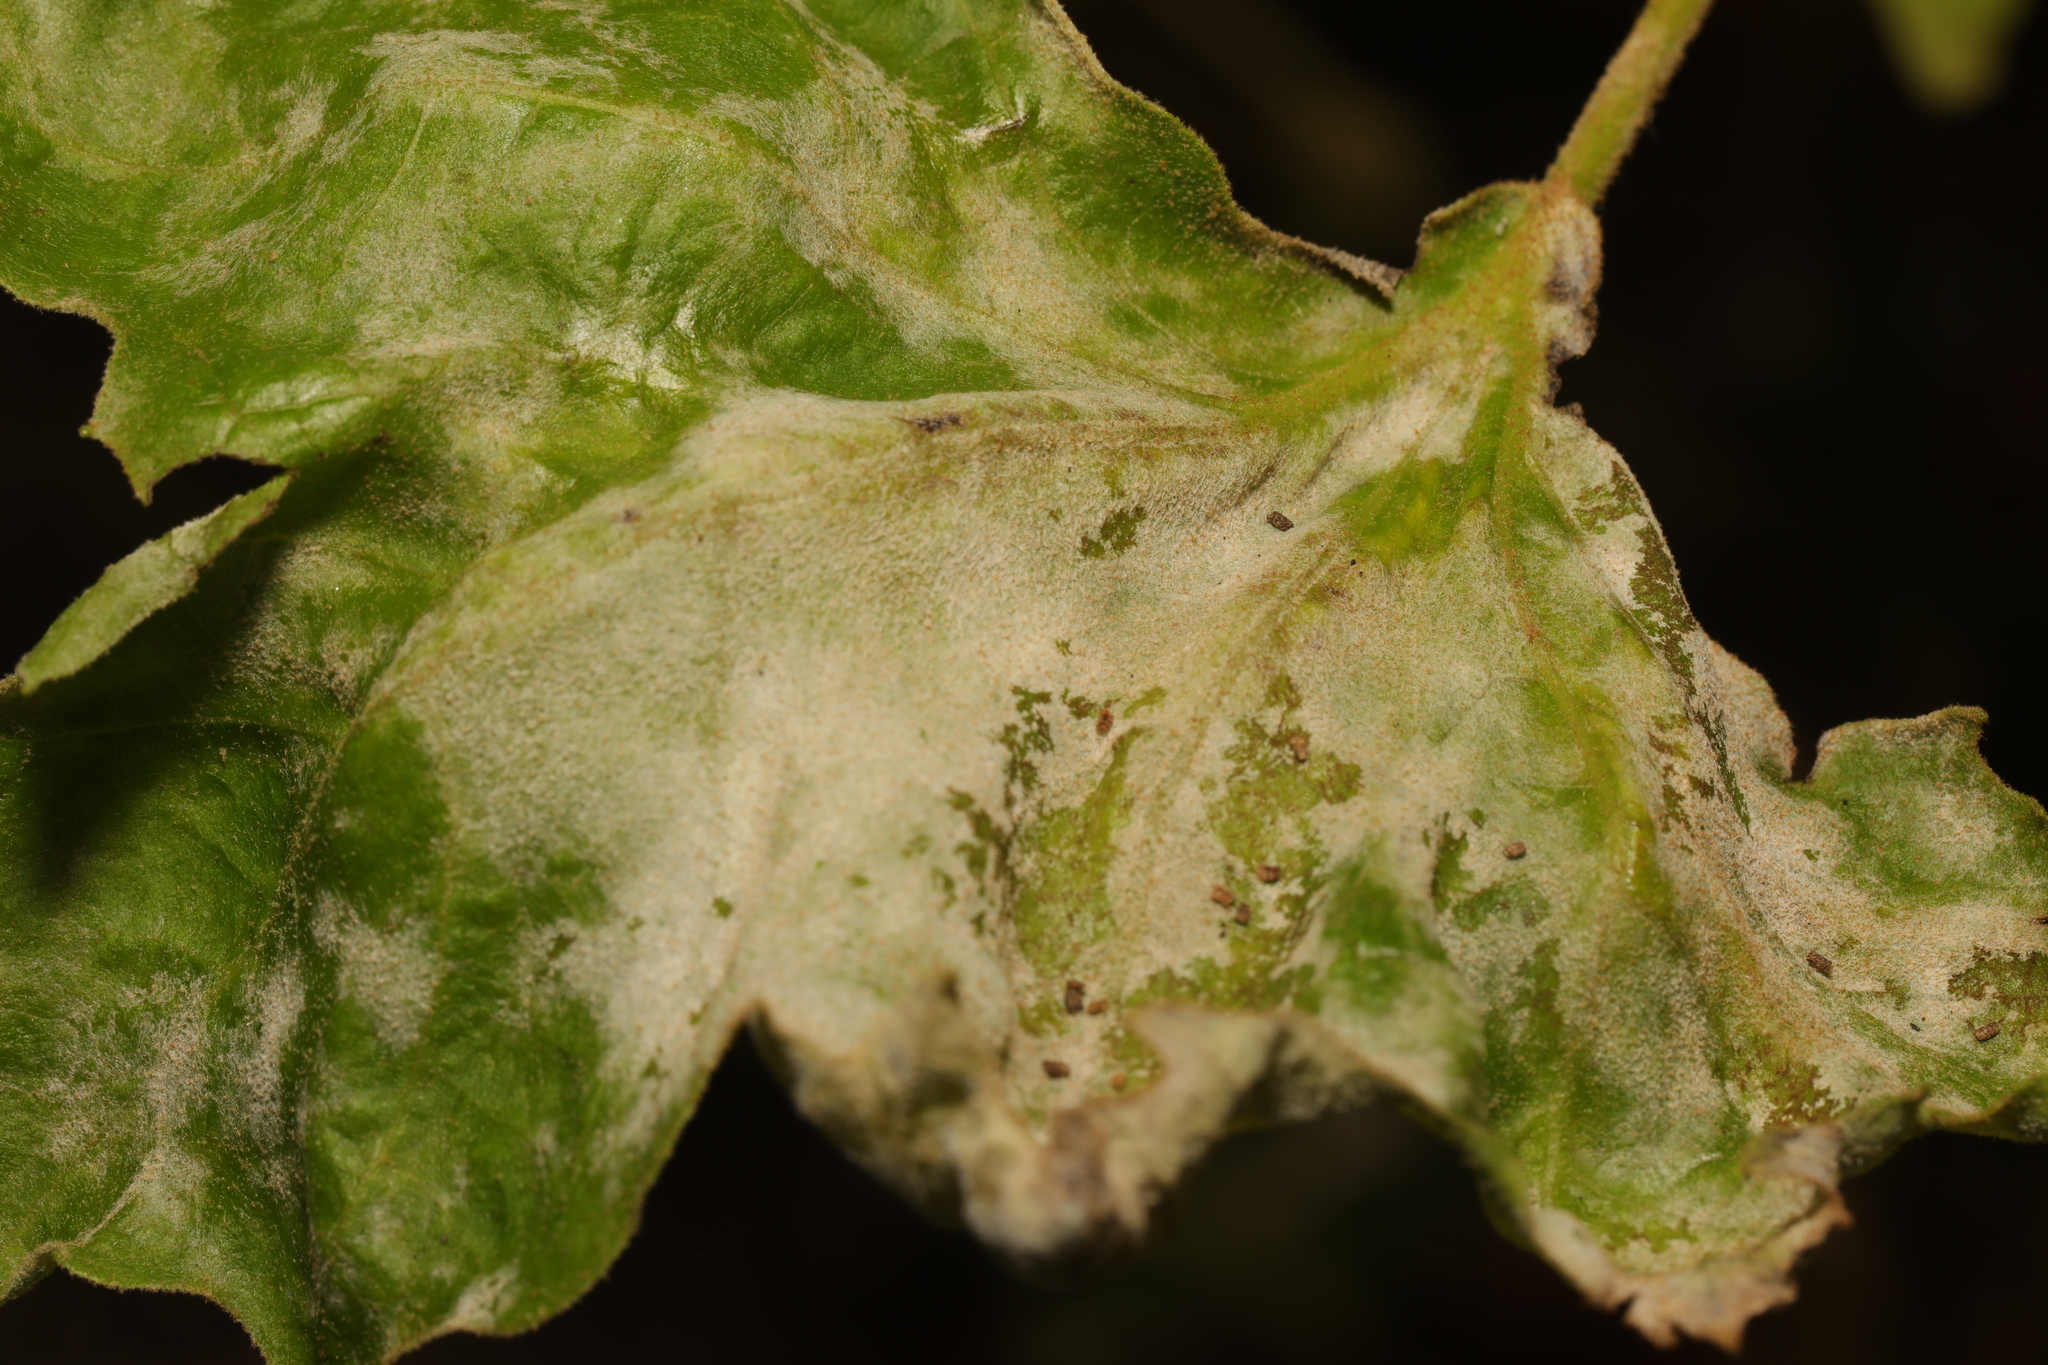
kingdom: Fungi
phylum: Ascomycota
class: Leotiomycetes
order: Helotiales
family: Erysiphaceae
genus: Erysiphe
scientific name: Erysiphe platani
